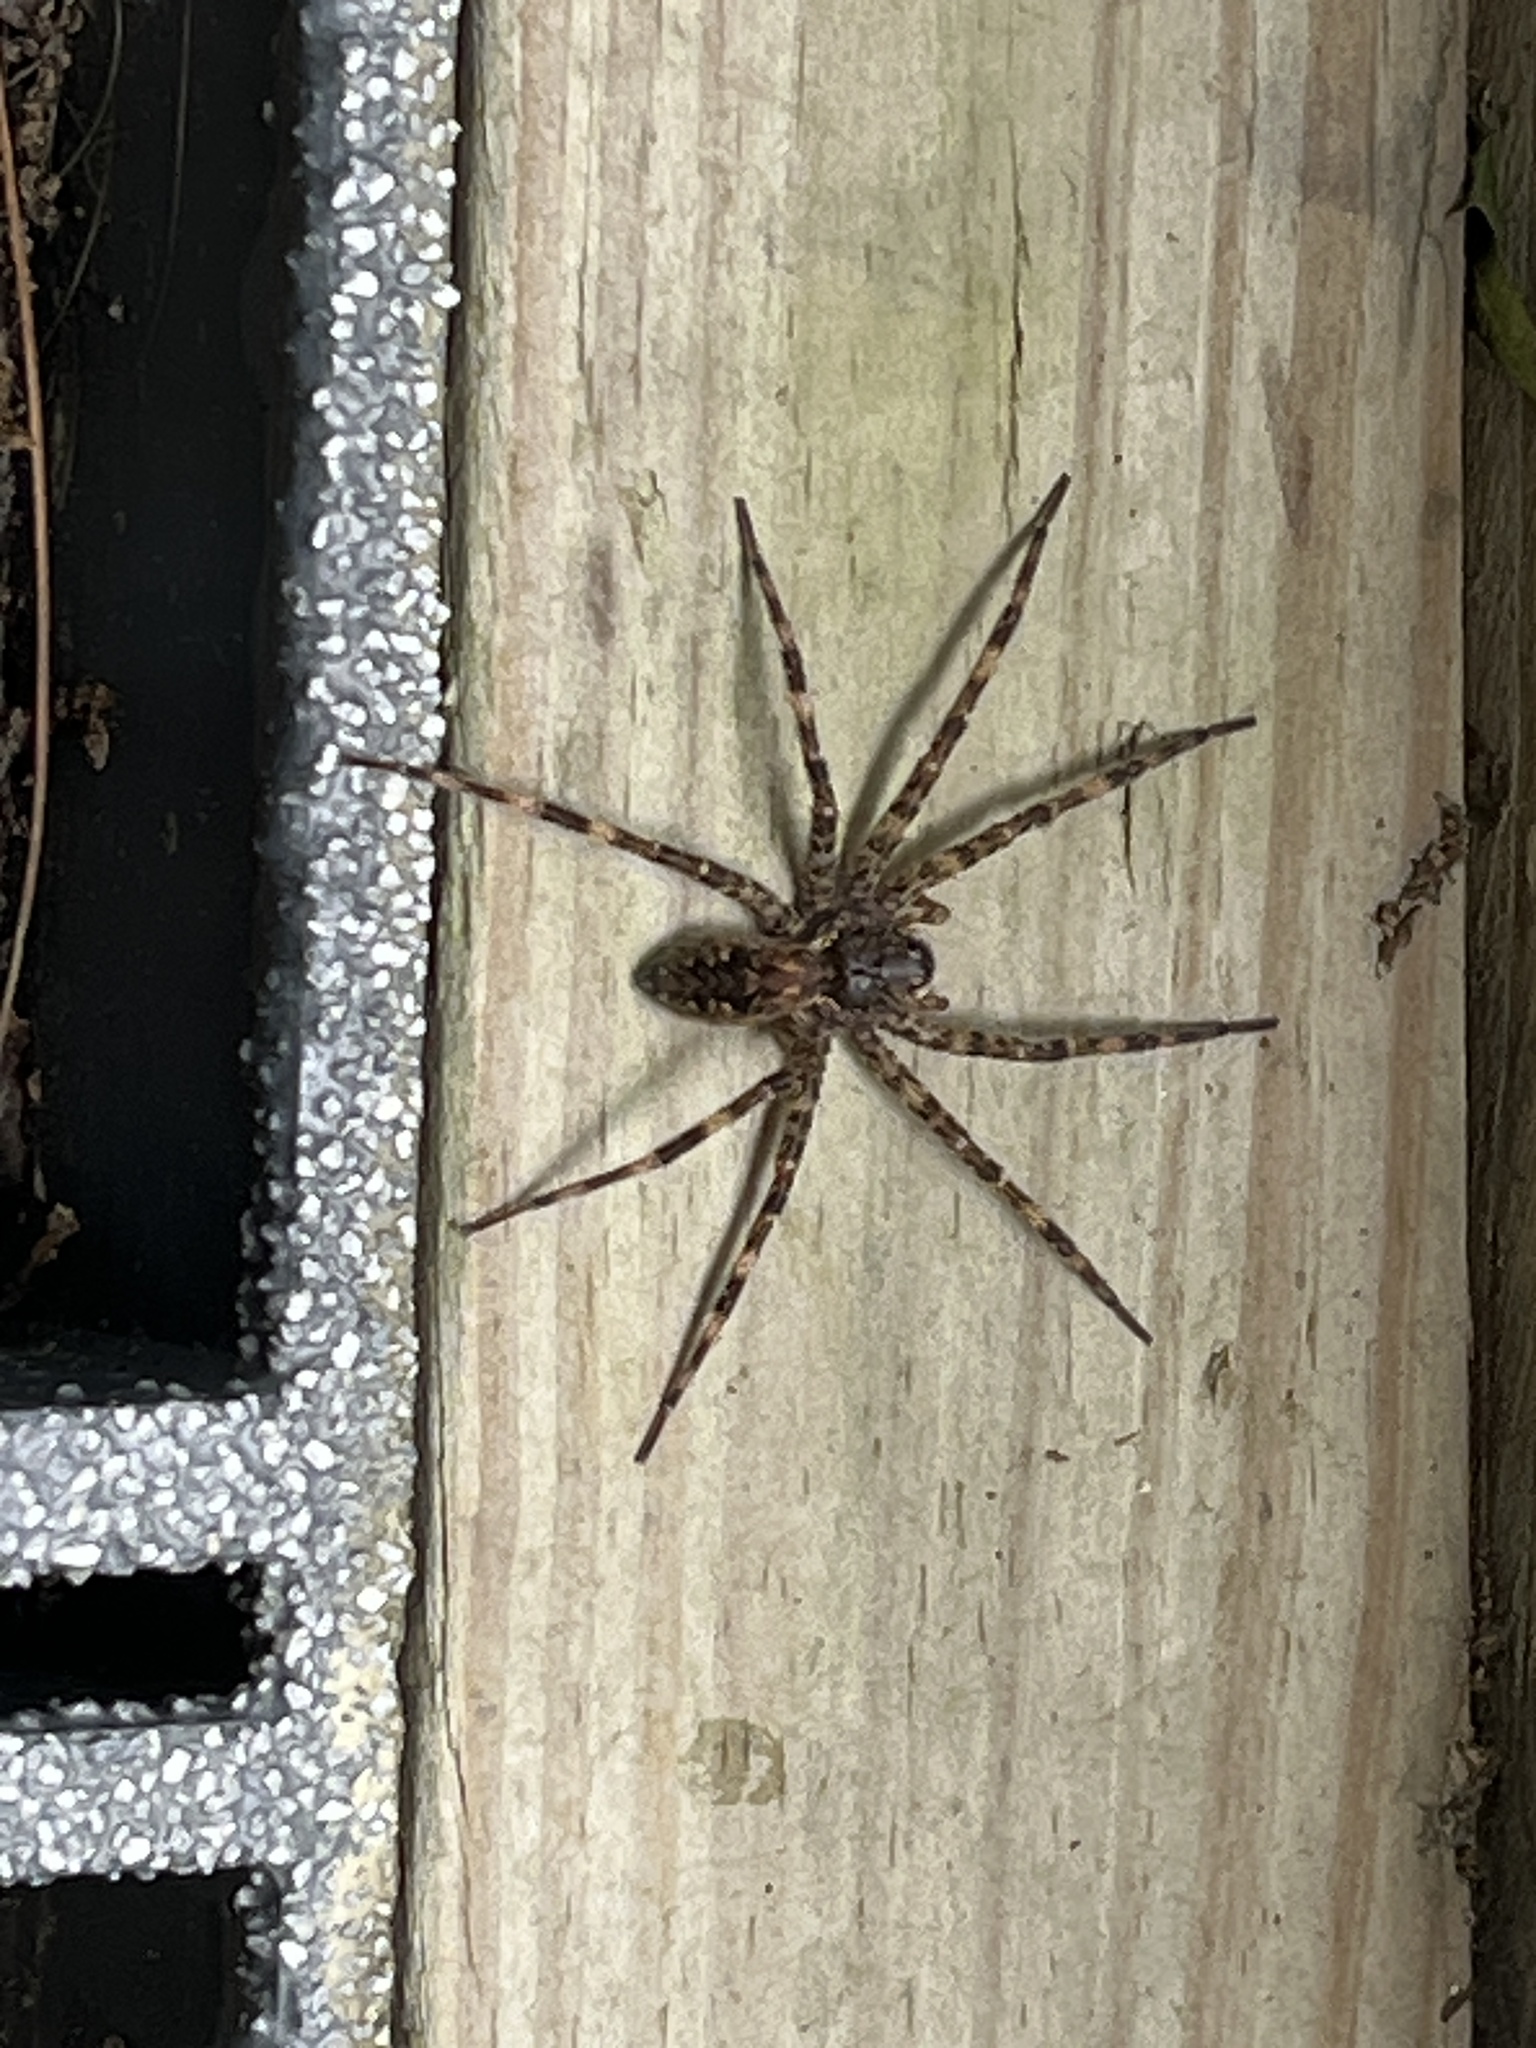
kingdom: Animalia
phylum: Arthropoda
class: Arachnida
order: Araneae
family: Pisauridae
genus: Dolomedes
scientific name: Dolomedes tenebrosus
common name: Dark fishing spider
